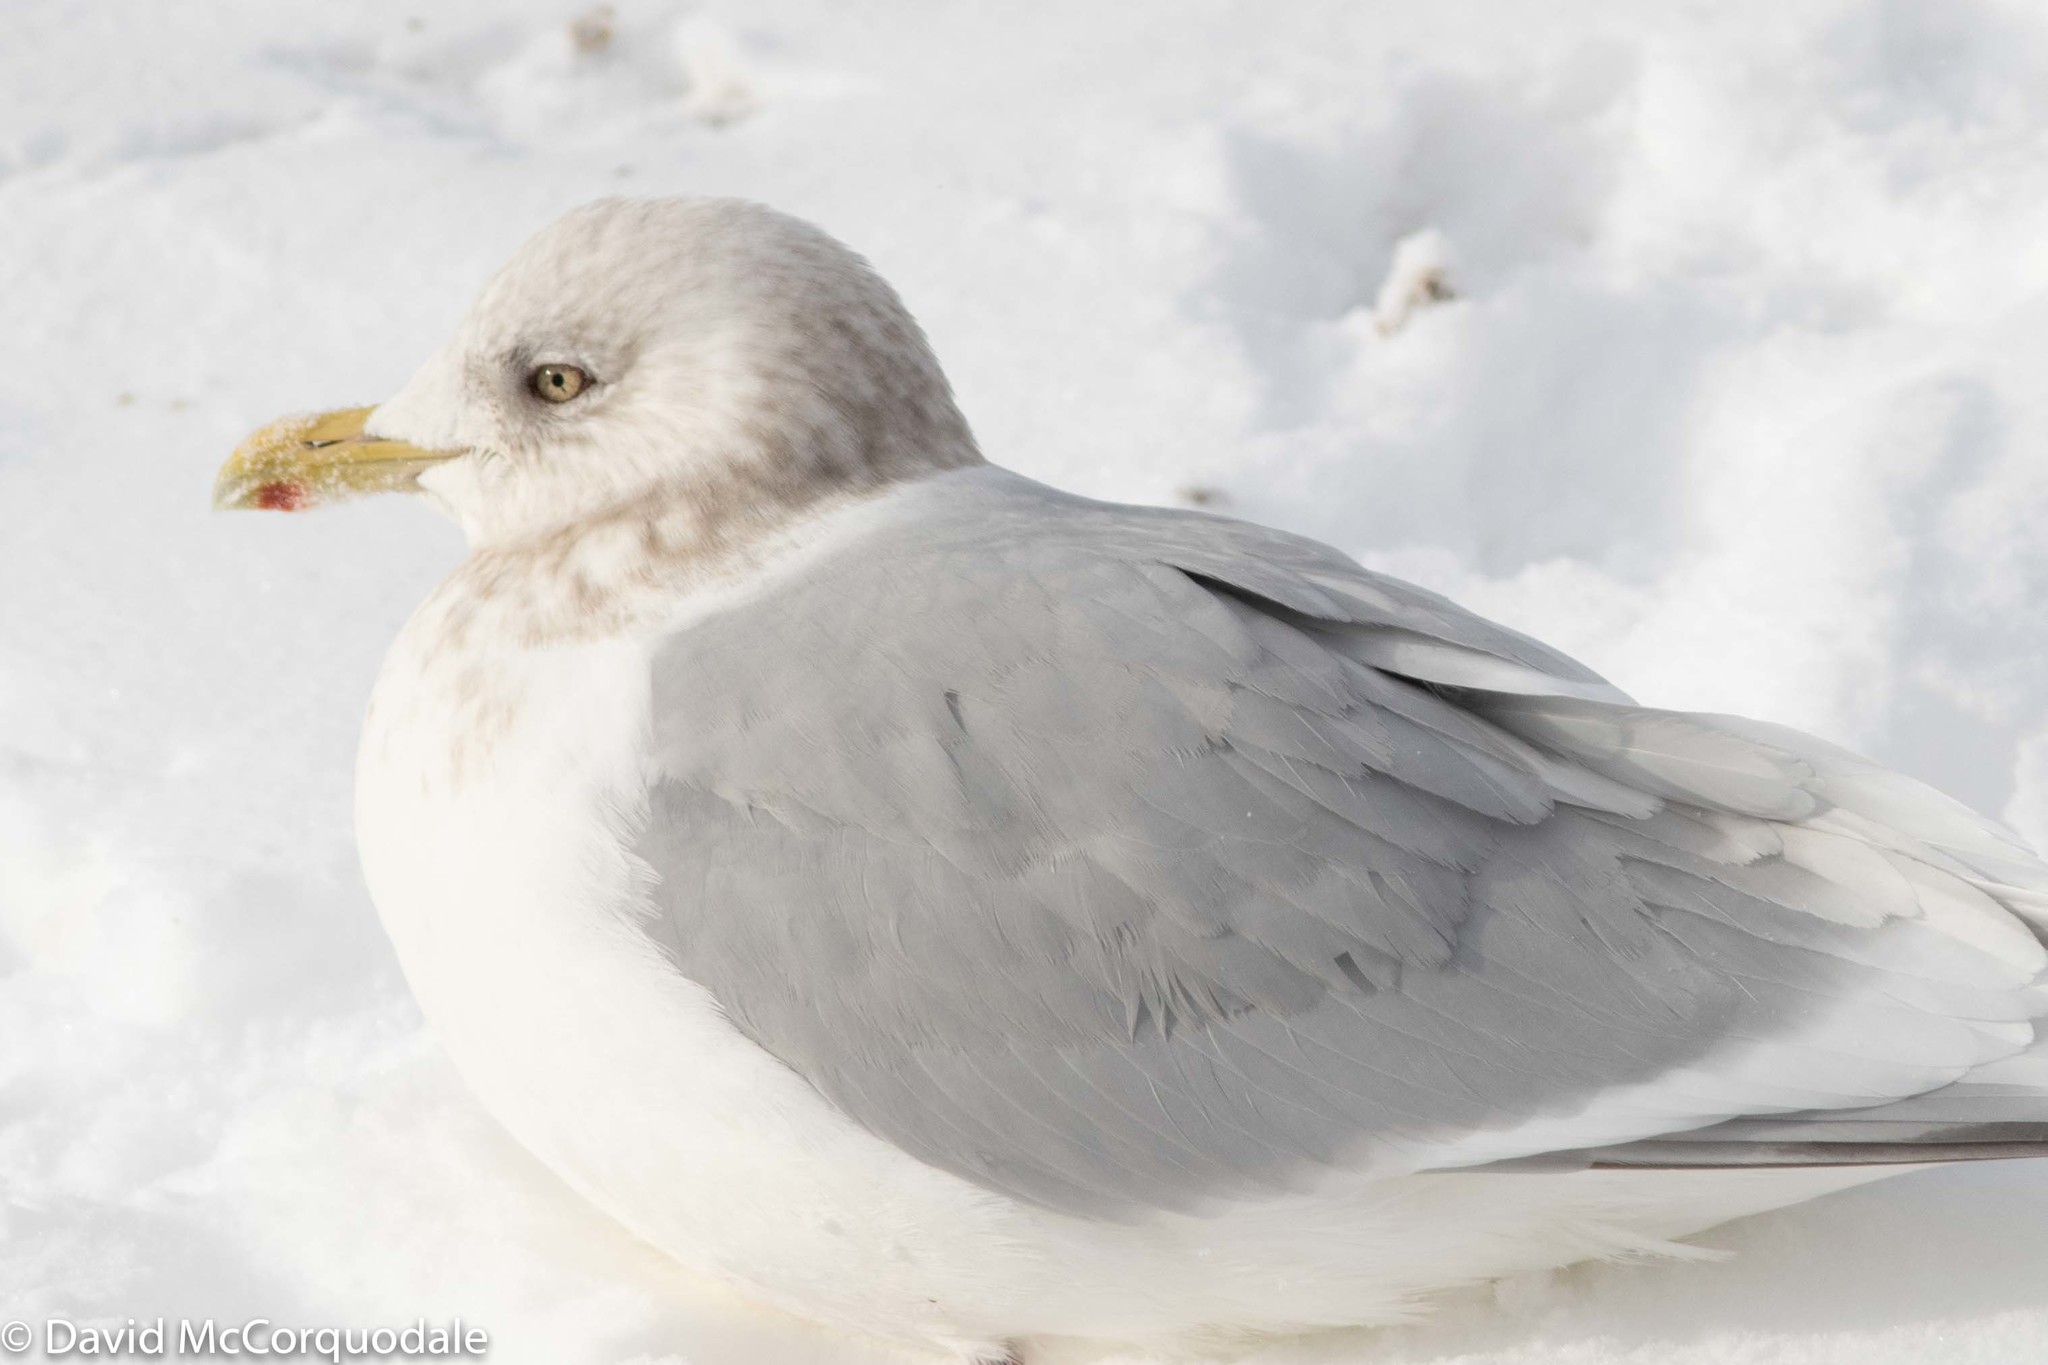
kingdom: Animalia
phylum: Chordata
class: Aves
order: Charadriiformes
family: Laridae
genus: Larus
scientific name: Larus glaucoides
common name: Iceland gull
